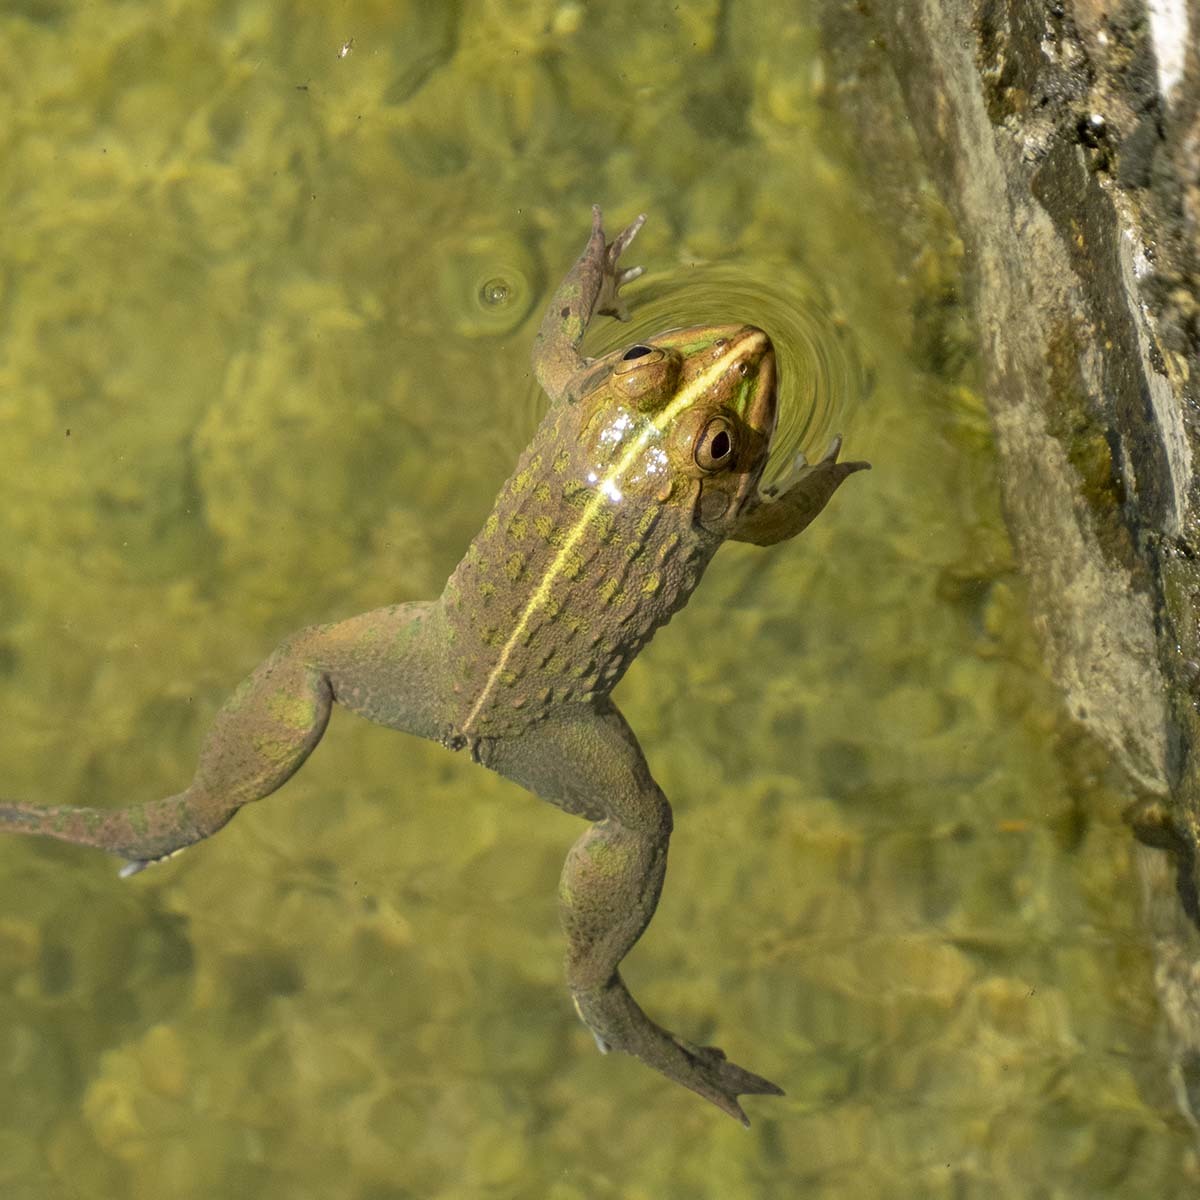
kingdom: Animalia
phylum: Chordata
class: Amphibia
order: Anura
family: Dicroglossidae
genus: Hoplobatrachus
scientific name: Hoplobatrachus tigerinus
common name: Indian bullfrog
